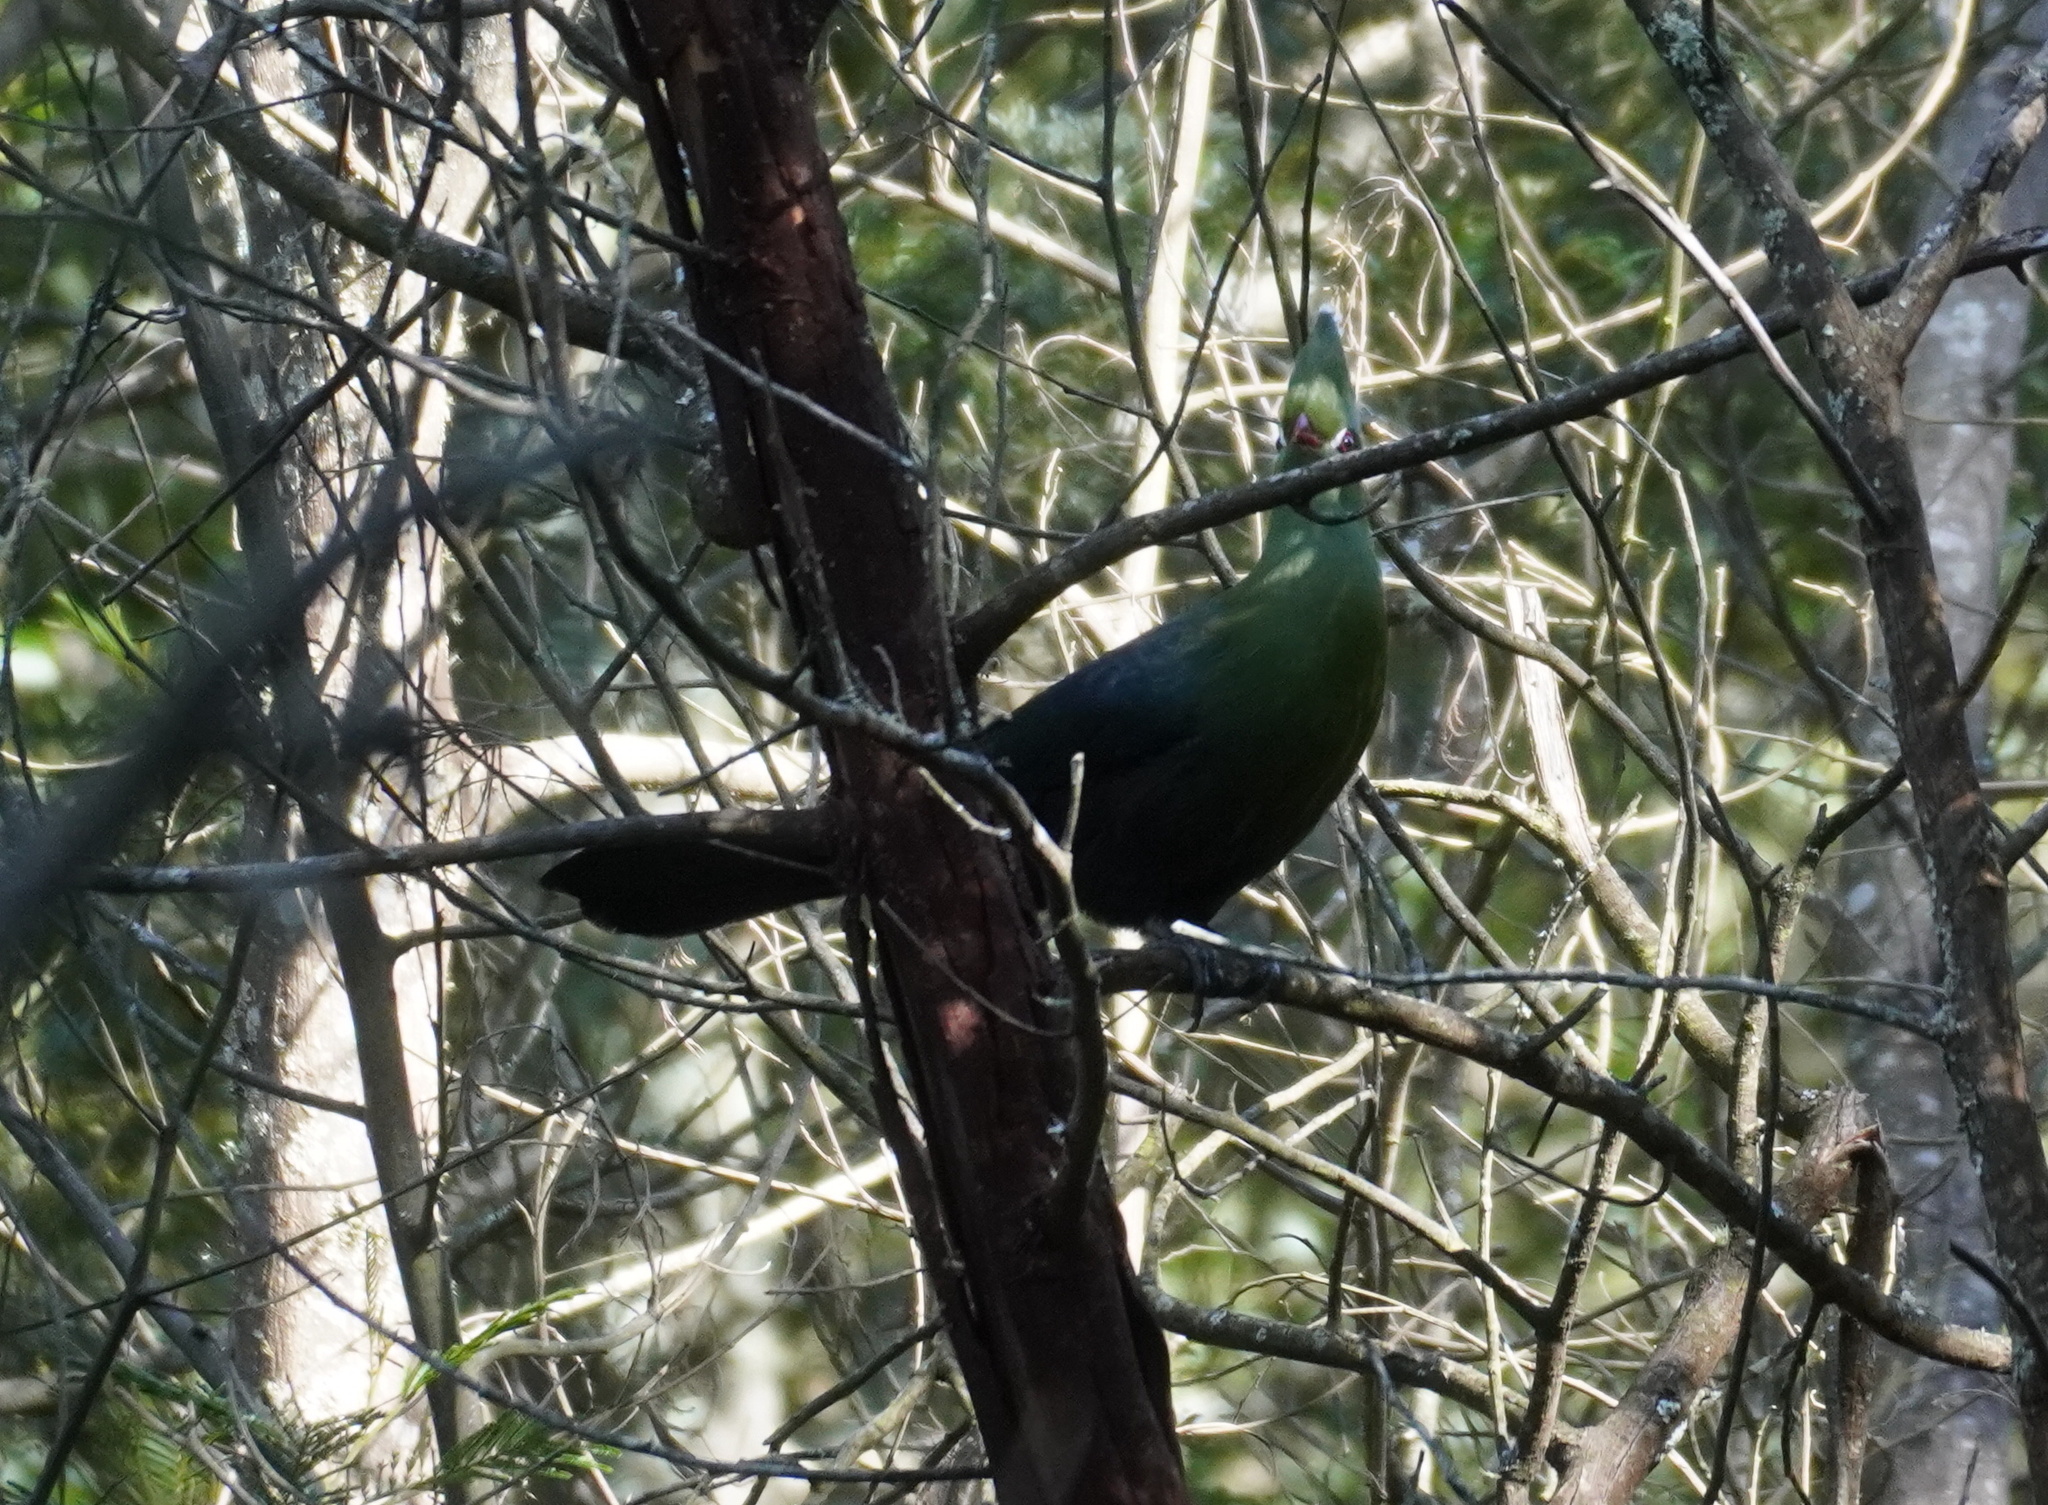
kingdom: Animalia
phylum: Chordata
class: Aves
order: Musophagiformes
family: Musophagidae
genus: Tauraco
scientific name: Tauraco corythaix
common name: Knysna turaco
